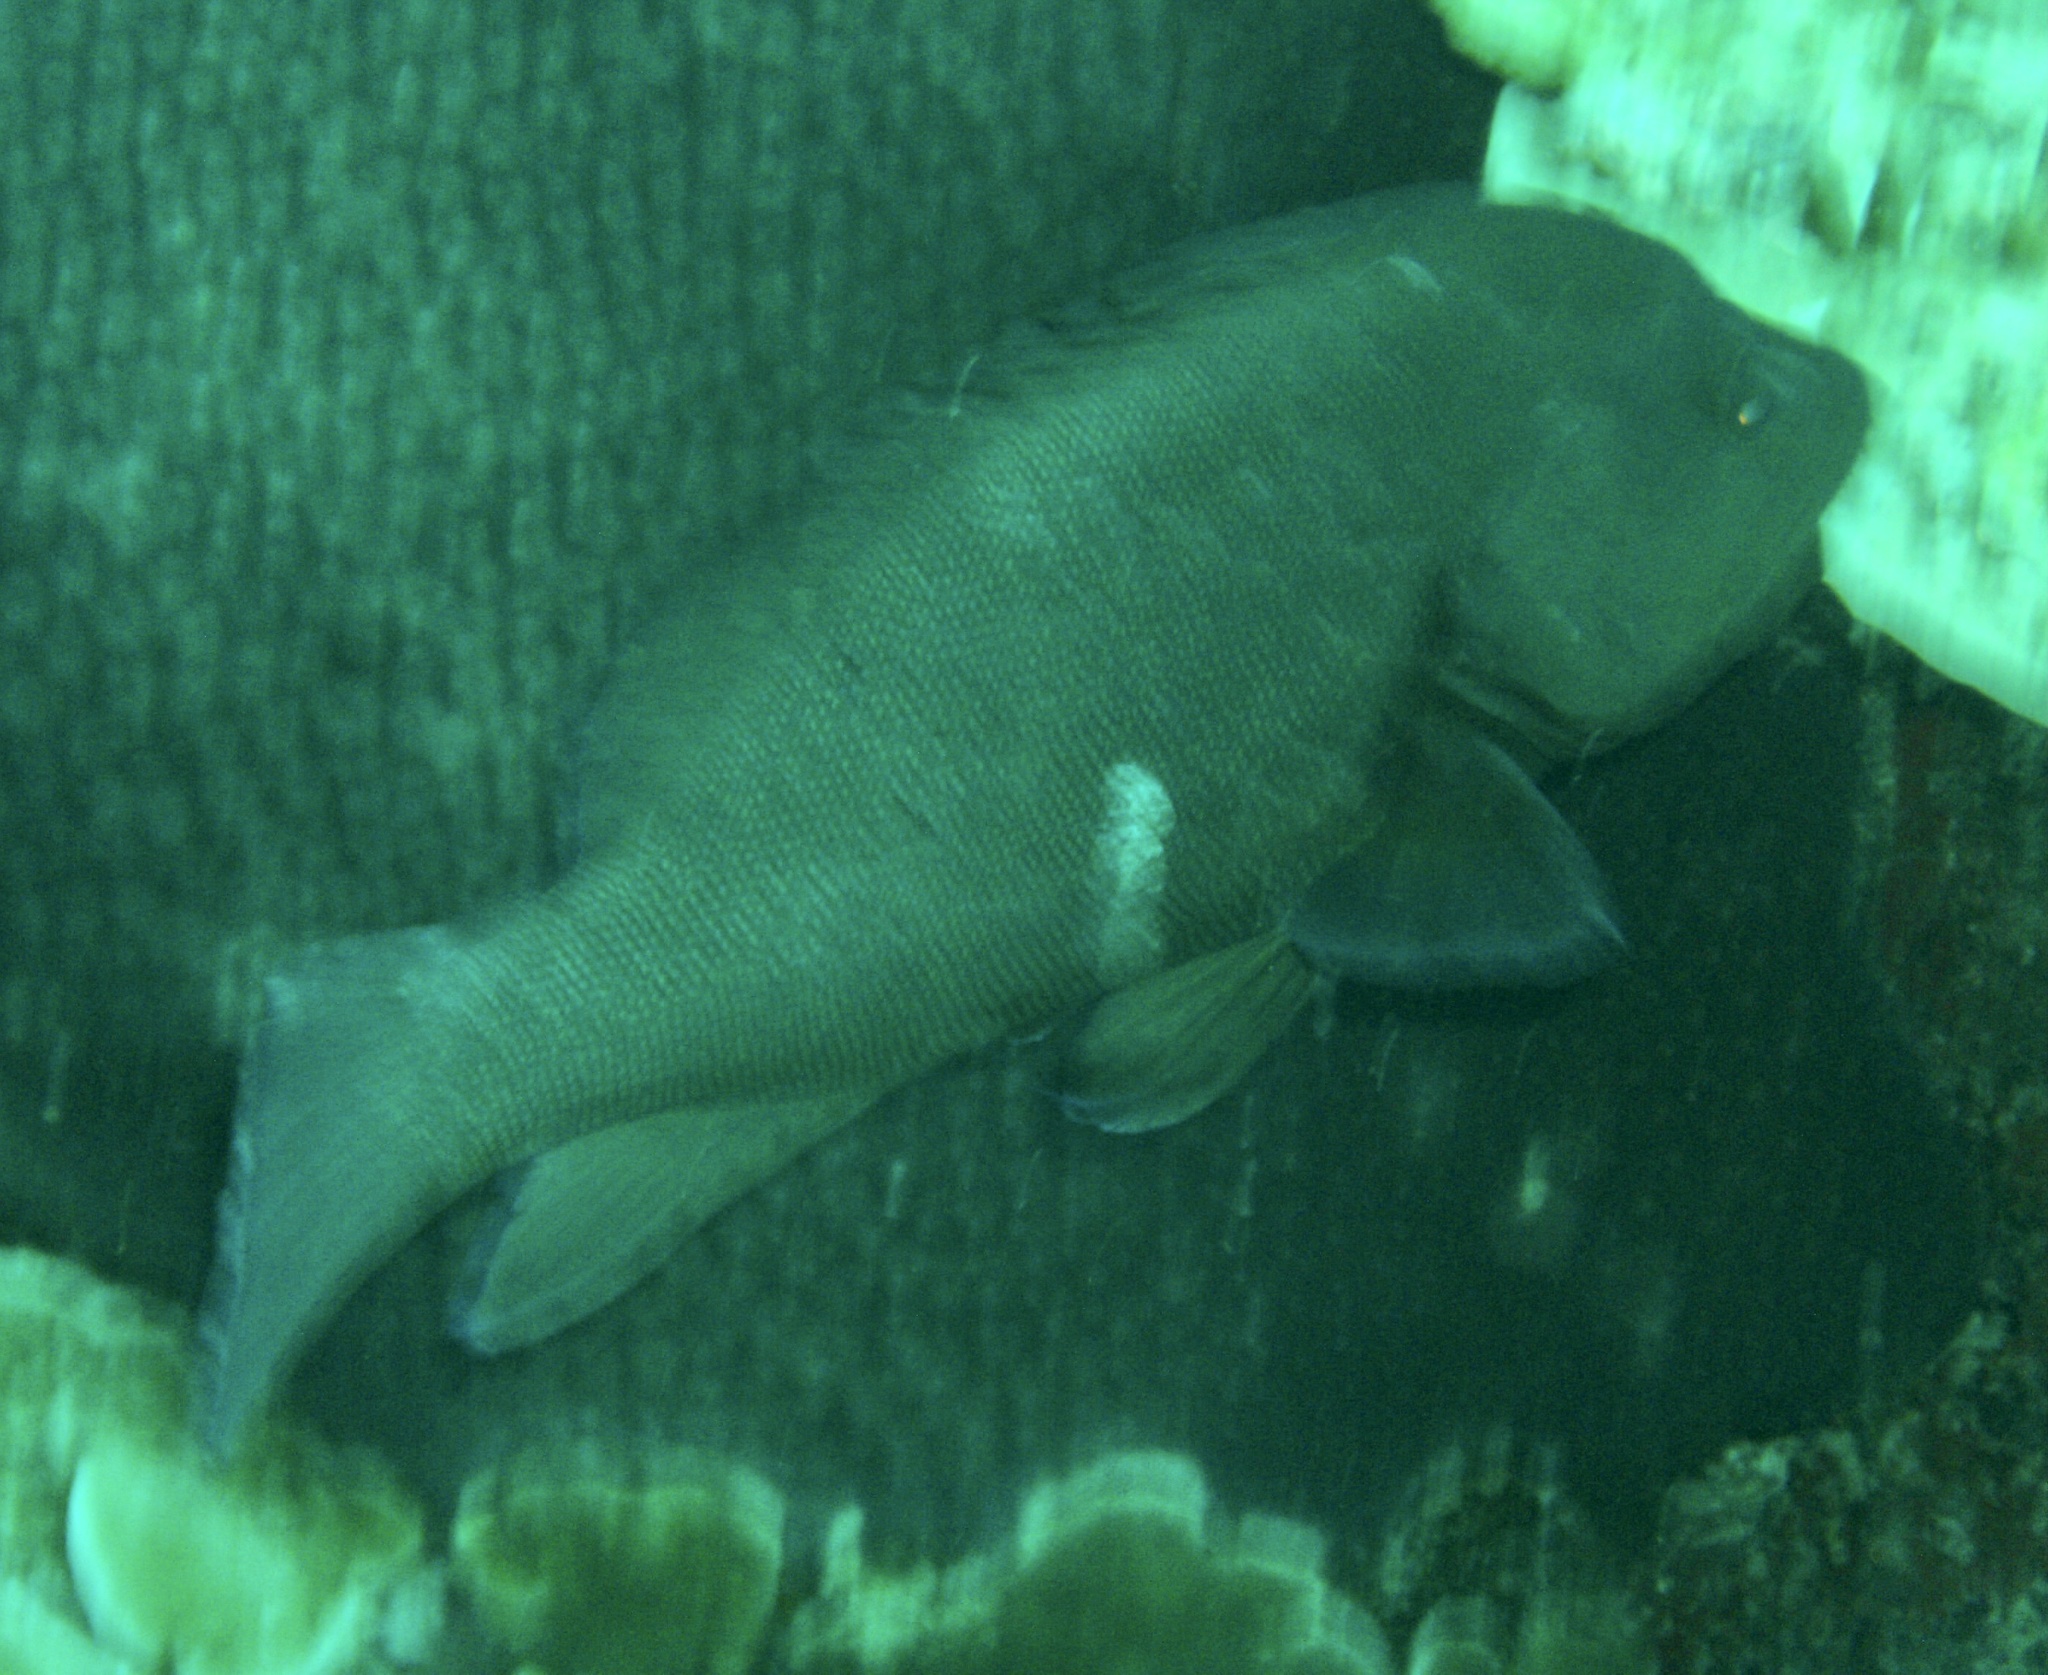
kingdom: Animalia
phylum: Chordata
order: Perciformes
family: Serranidae
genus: Aethaloperca
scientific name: Aethaloperca rogaa
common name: Redmouth grouper
